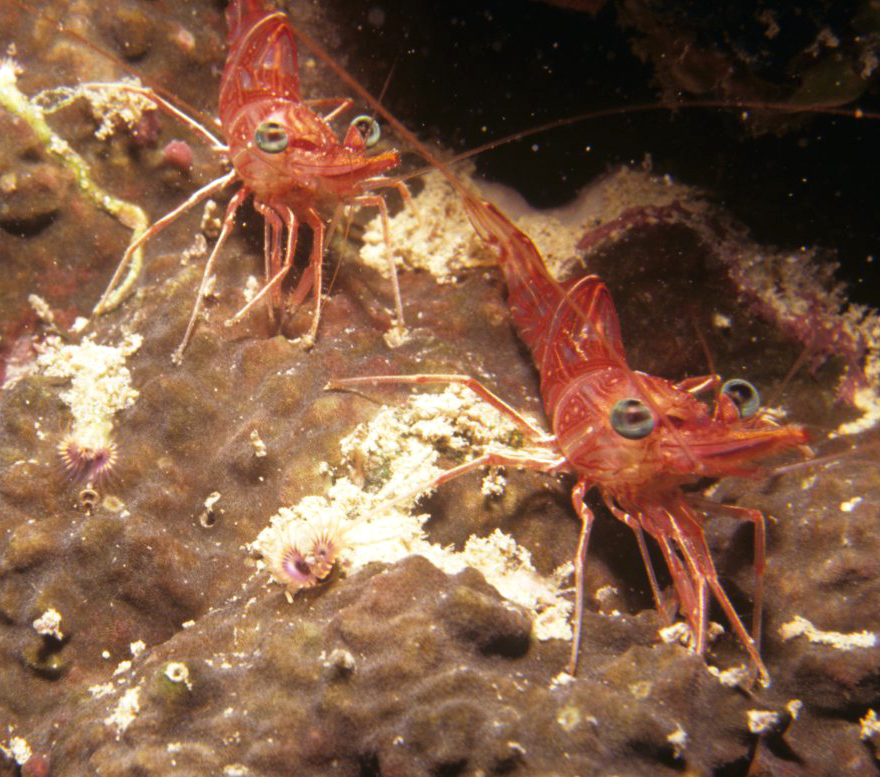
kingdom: Animalia
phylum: Arthropoda
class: Malacostraca
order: Decapoda
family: Rhynchocinetidae
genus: Rhynchocinetes
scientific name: Rhynchocinetes durbanensis
